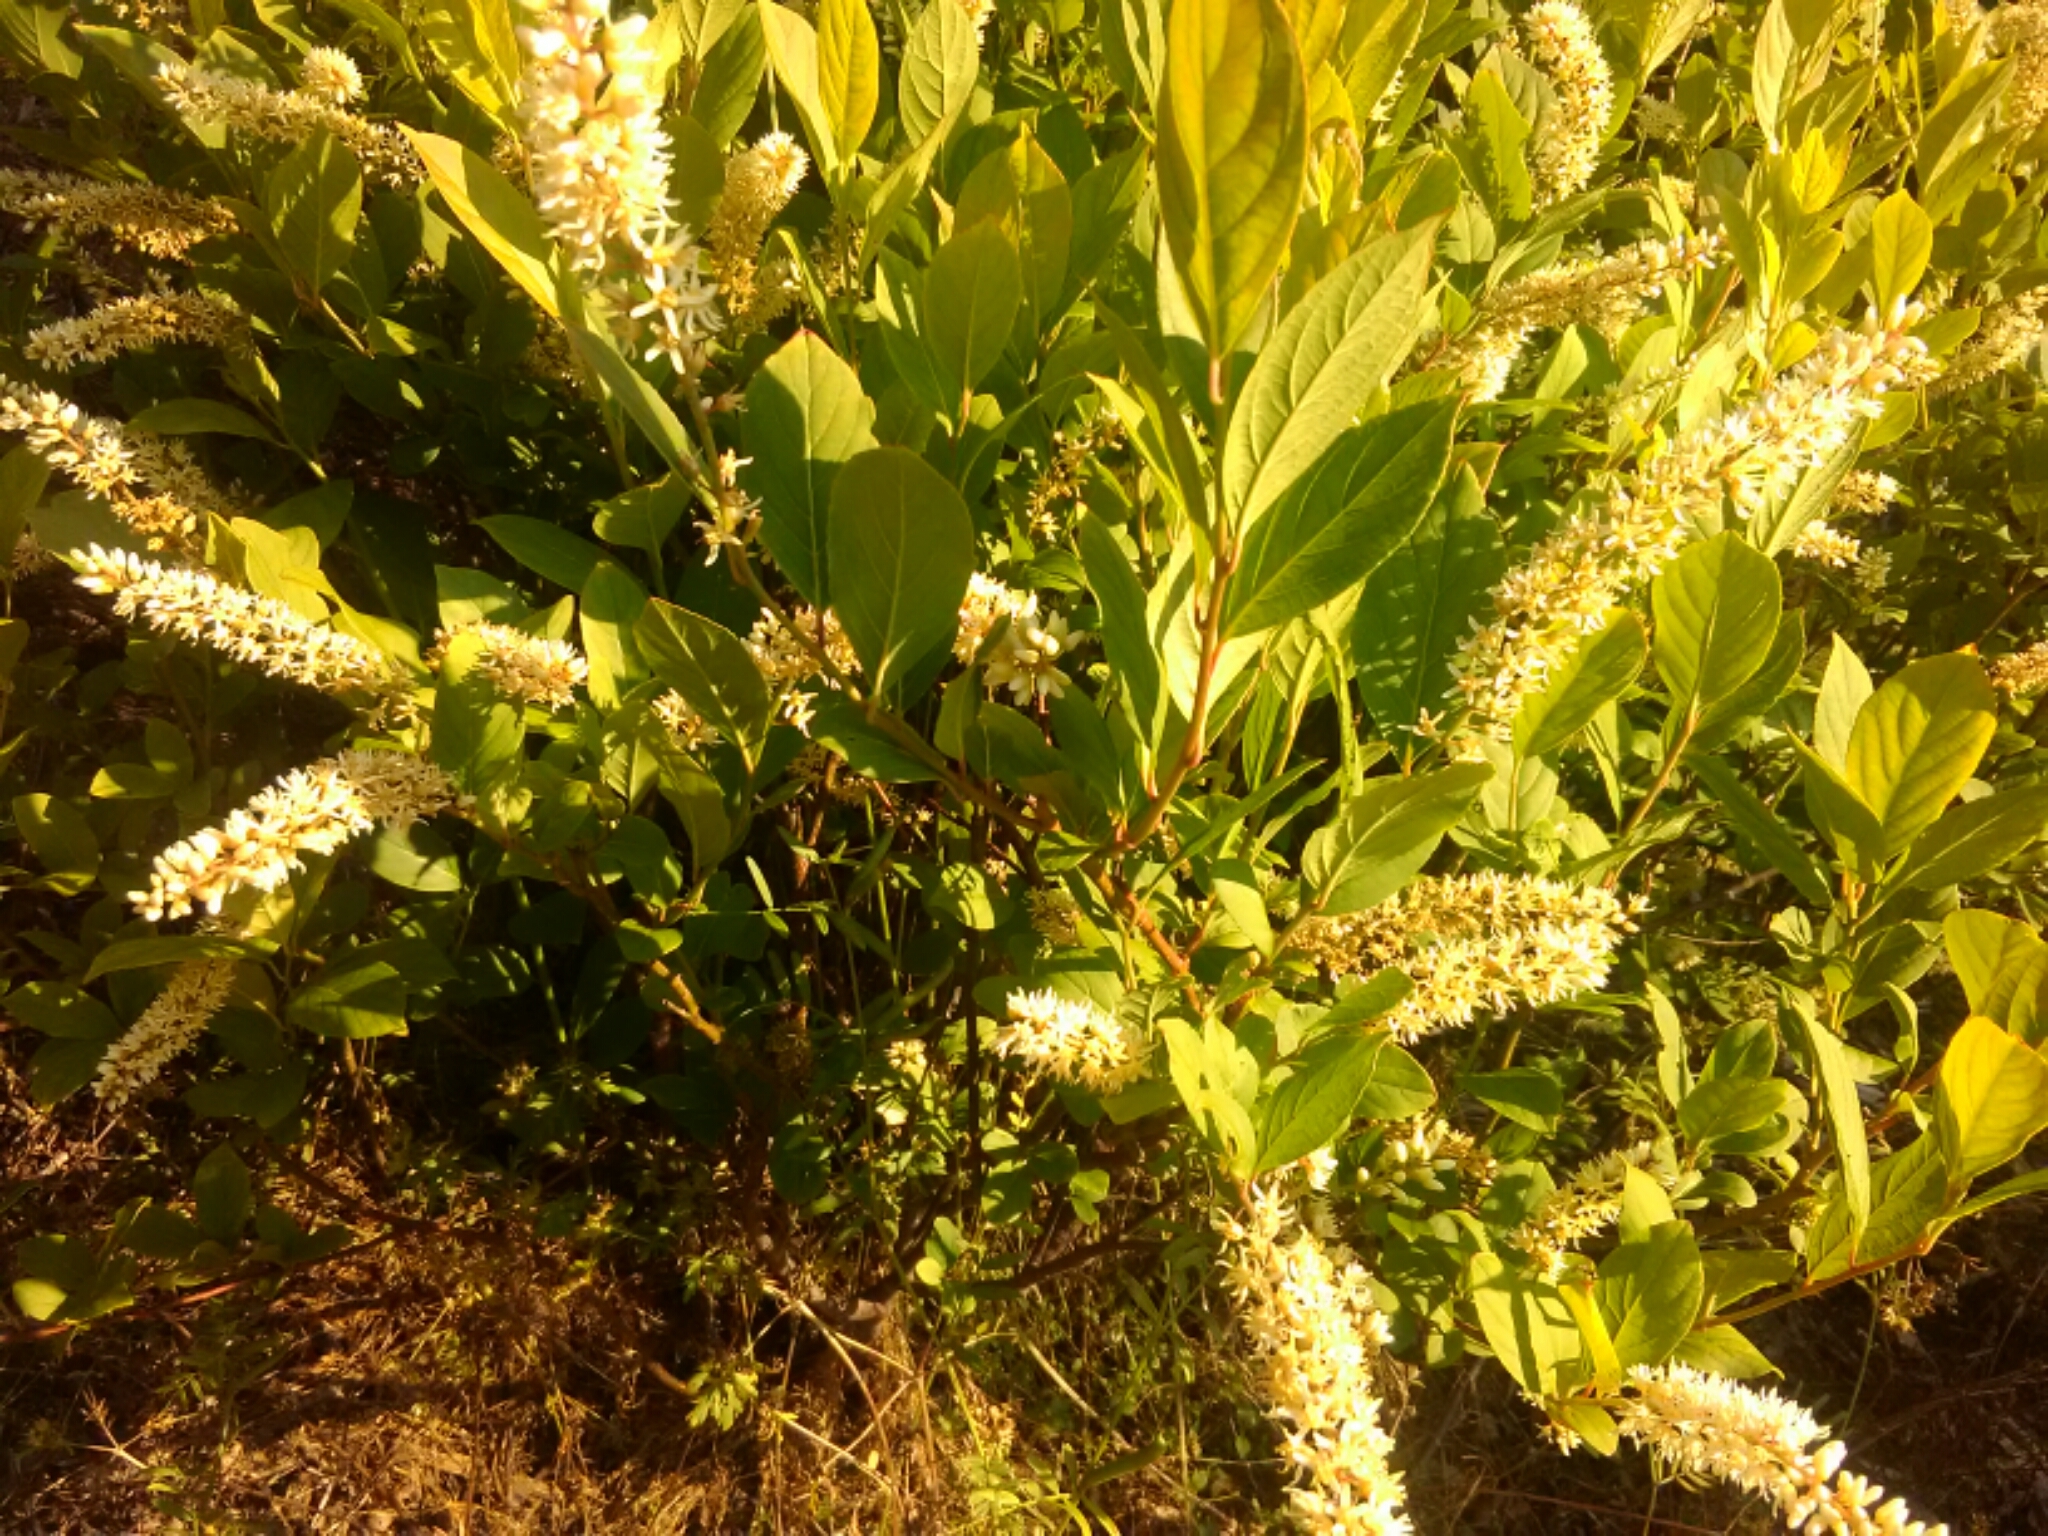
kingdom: Plantae
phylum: Tracheophyta
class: Magnoliopsida
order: Saxifragales
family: Iteaceae
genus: Itea
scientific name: Itea virginica
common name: Sweetspire
